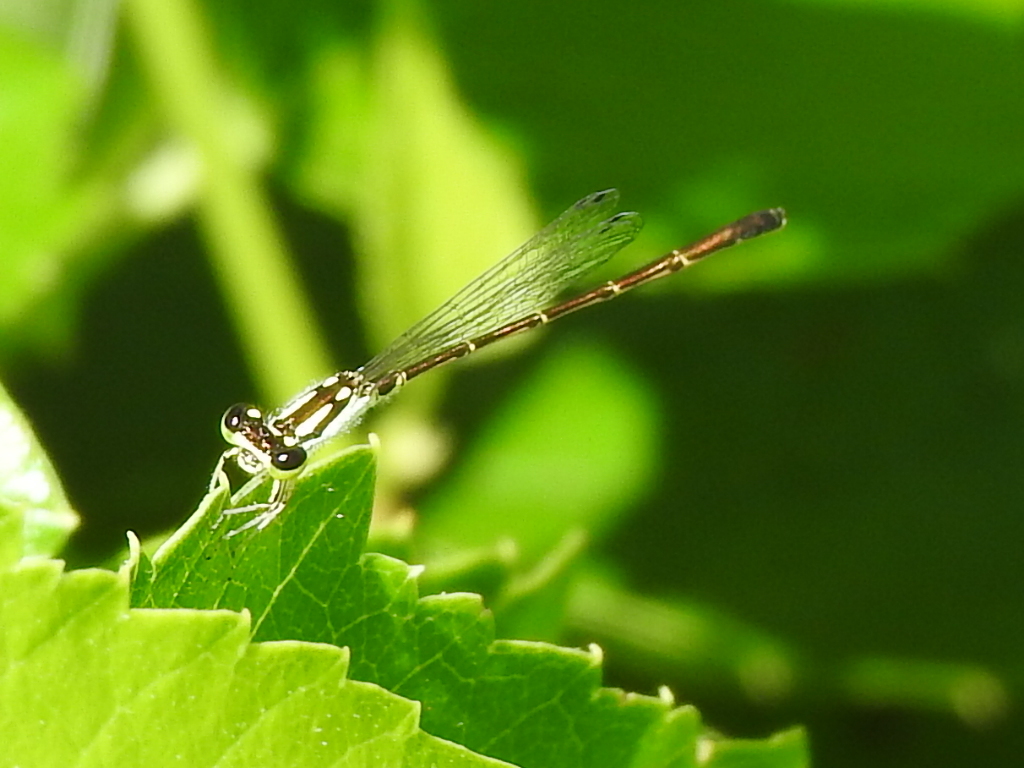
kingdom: Animalia
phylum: Arthropoda
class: Insecta
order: Odonata
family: Coenagrionidae
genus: Ischnura
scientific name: Ischnura posita
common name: Fragile forktail
